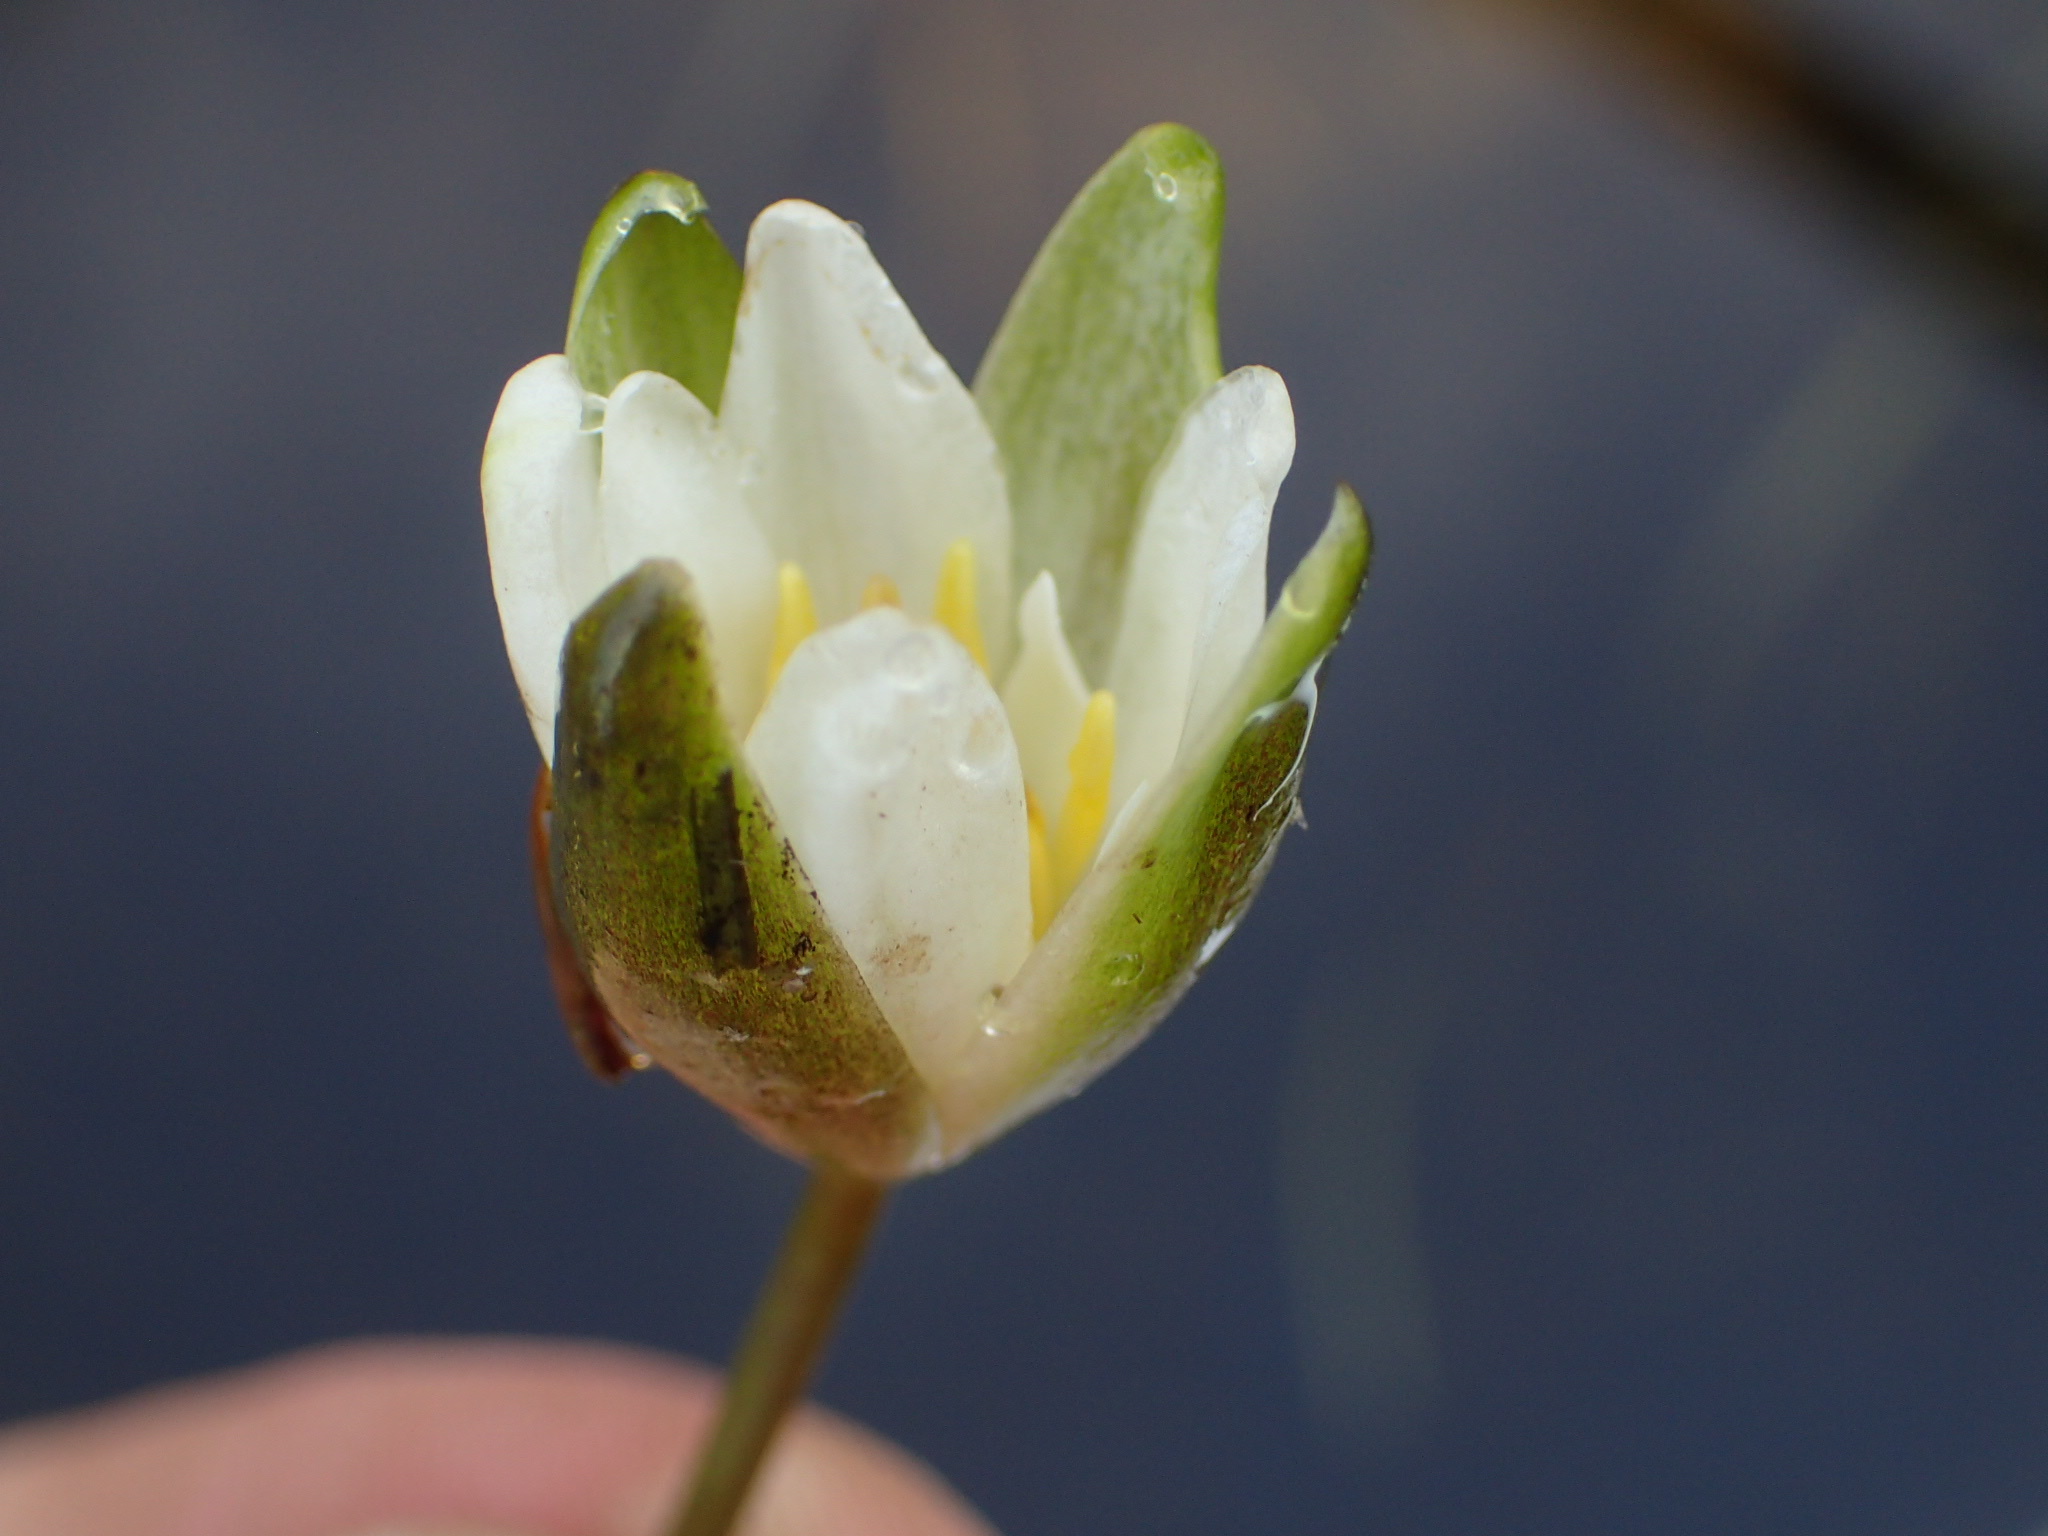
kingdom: Plantae
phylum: Tracheophyta
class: Magnoliopsida
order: Nymphaeales
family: Nymphaeaceae
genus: Nymphaea
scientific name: Nymphaea leibergii
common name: Dwarf water-lily
